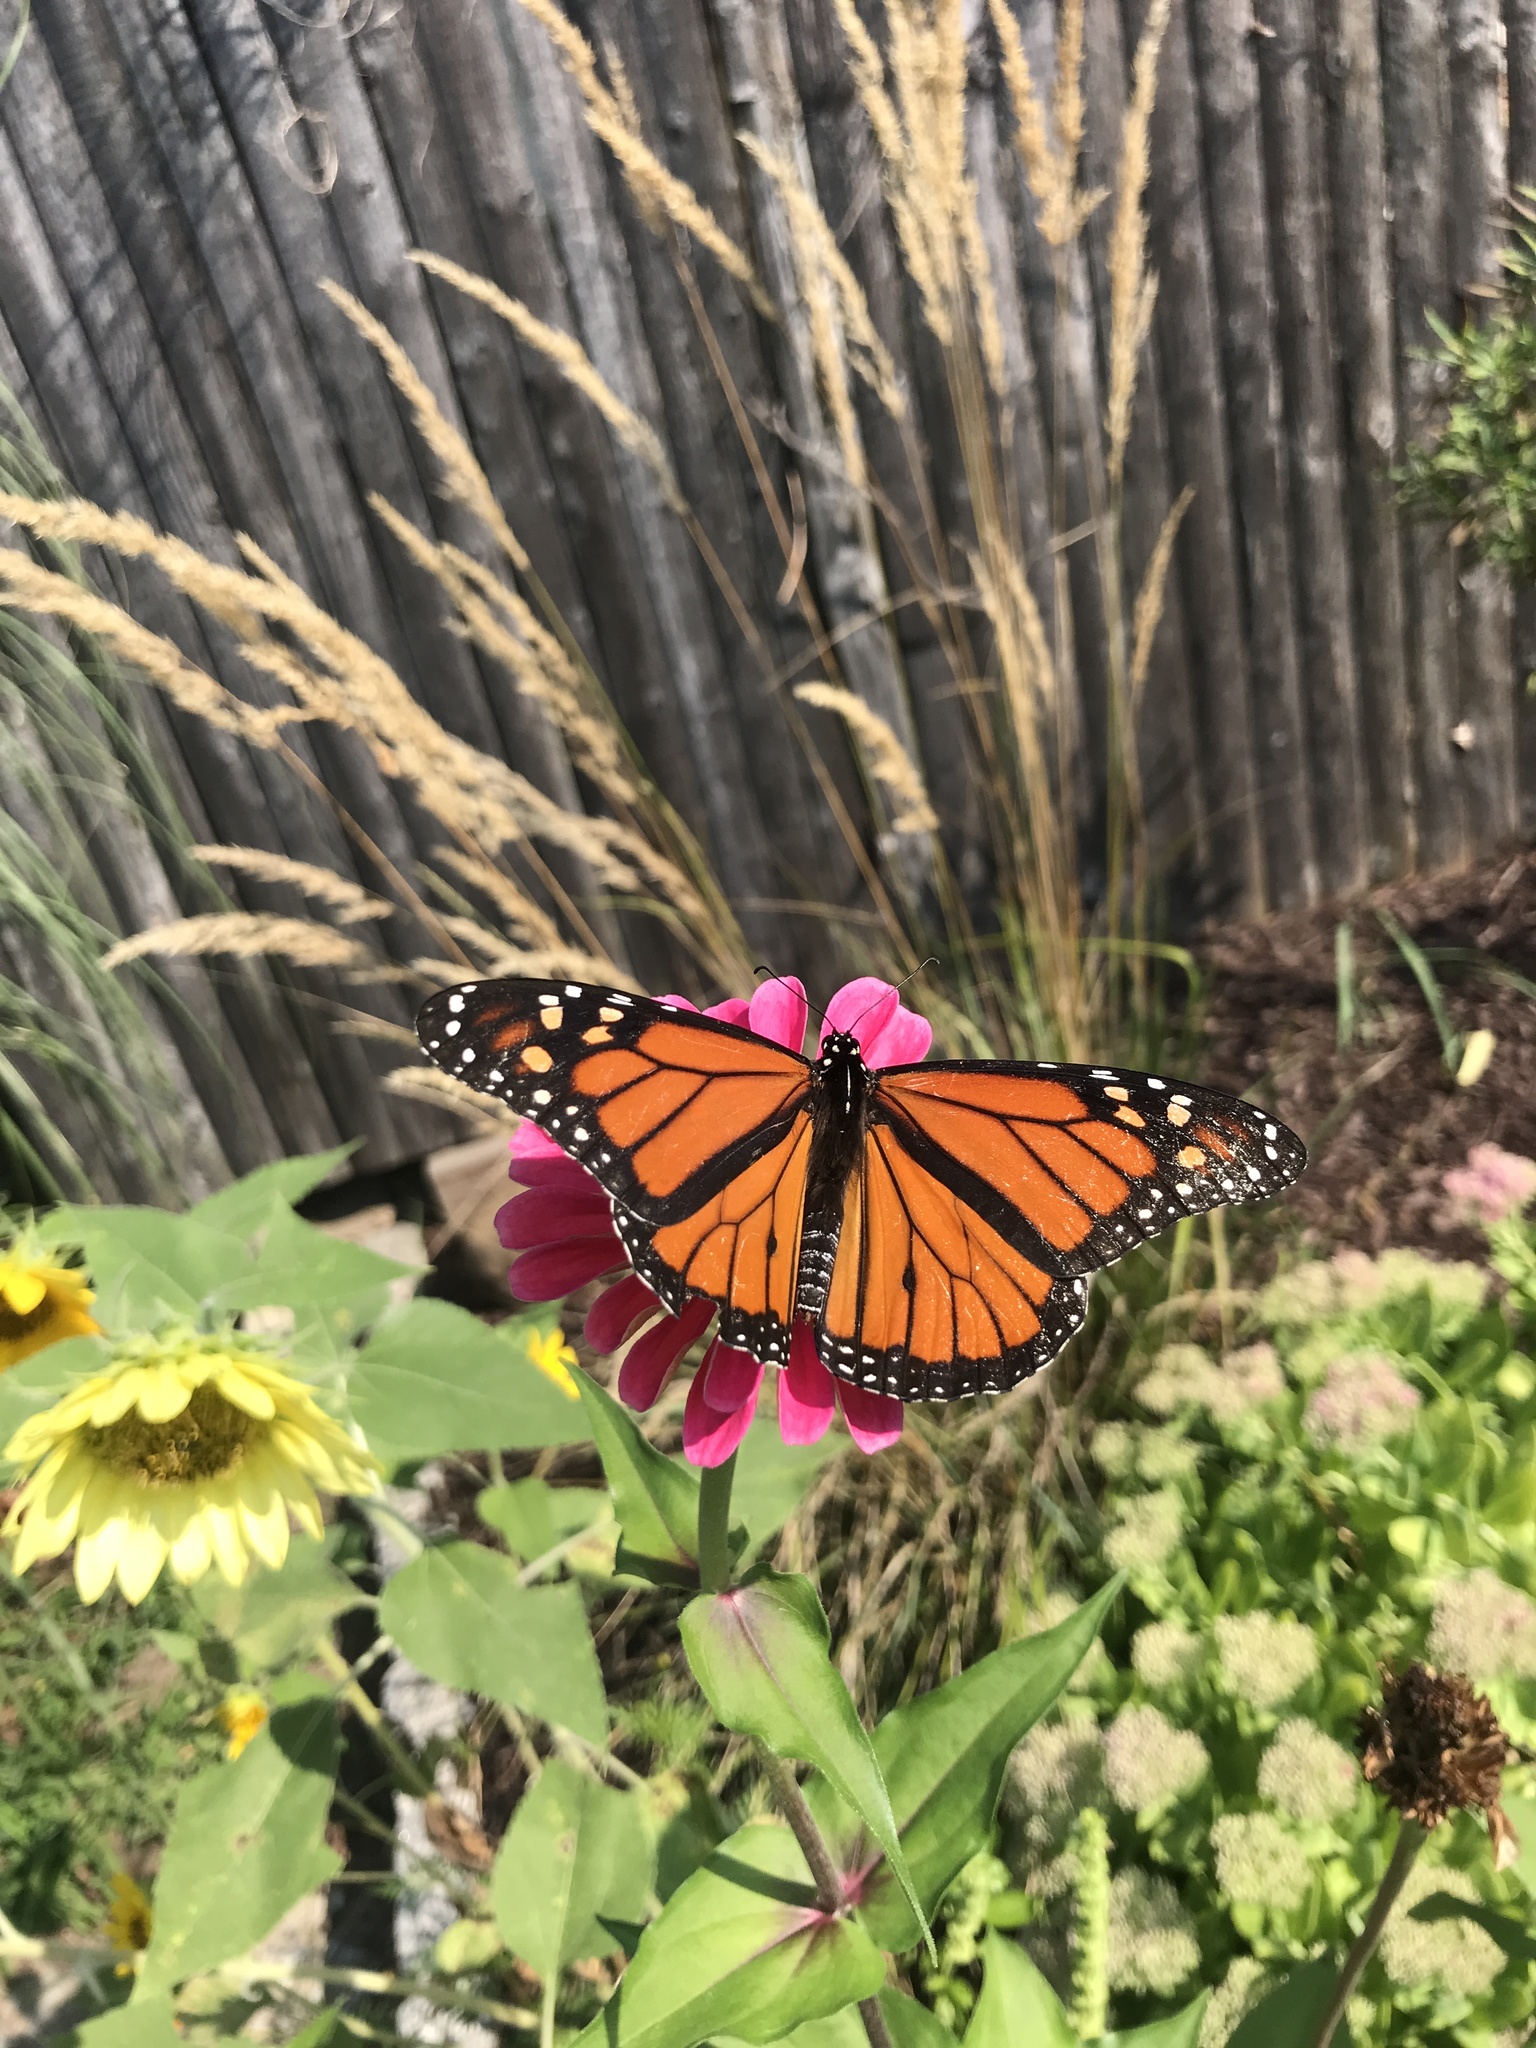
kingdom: Animalia
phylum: Arthropoda
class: Insecta
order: Lepidoptera
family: Nymphalidae
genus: Danaus
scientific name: Danaus plexippus
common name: Monarch
